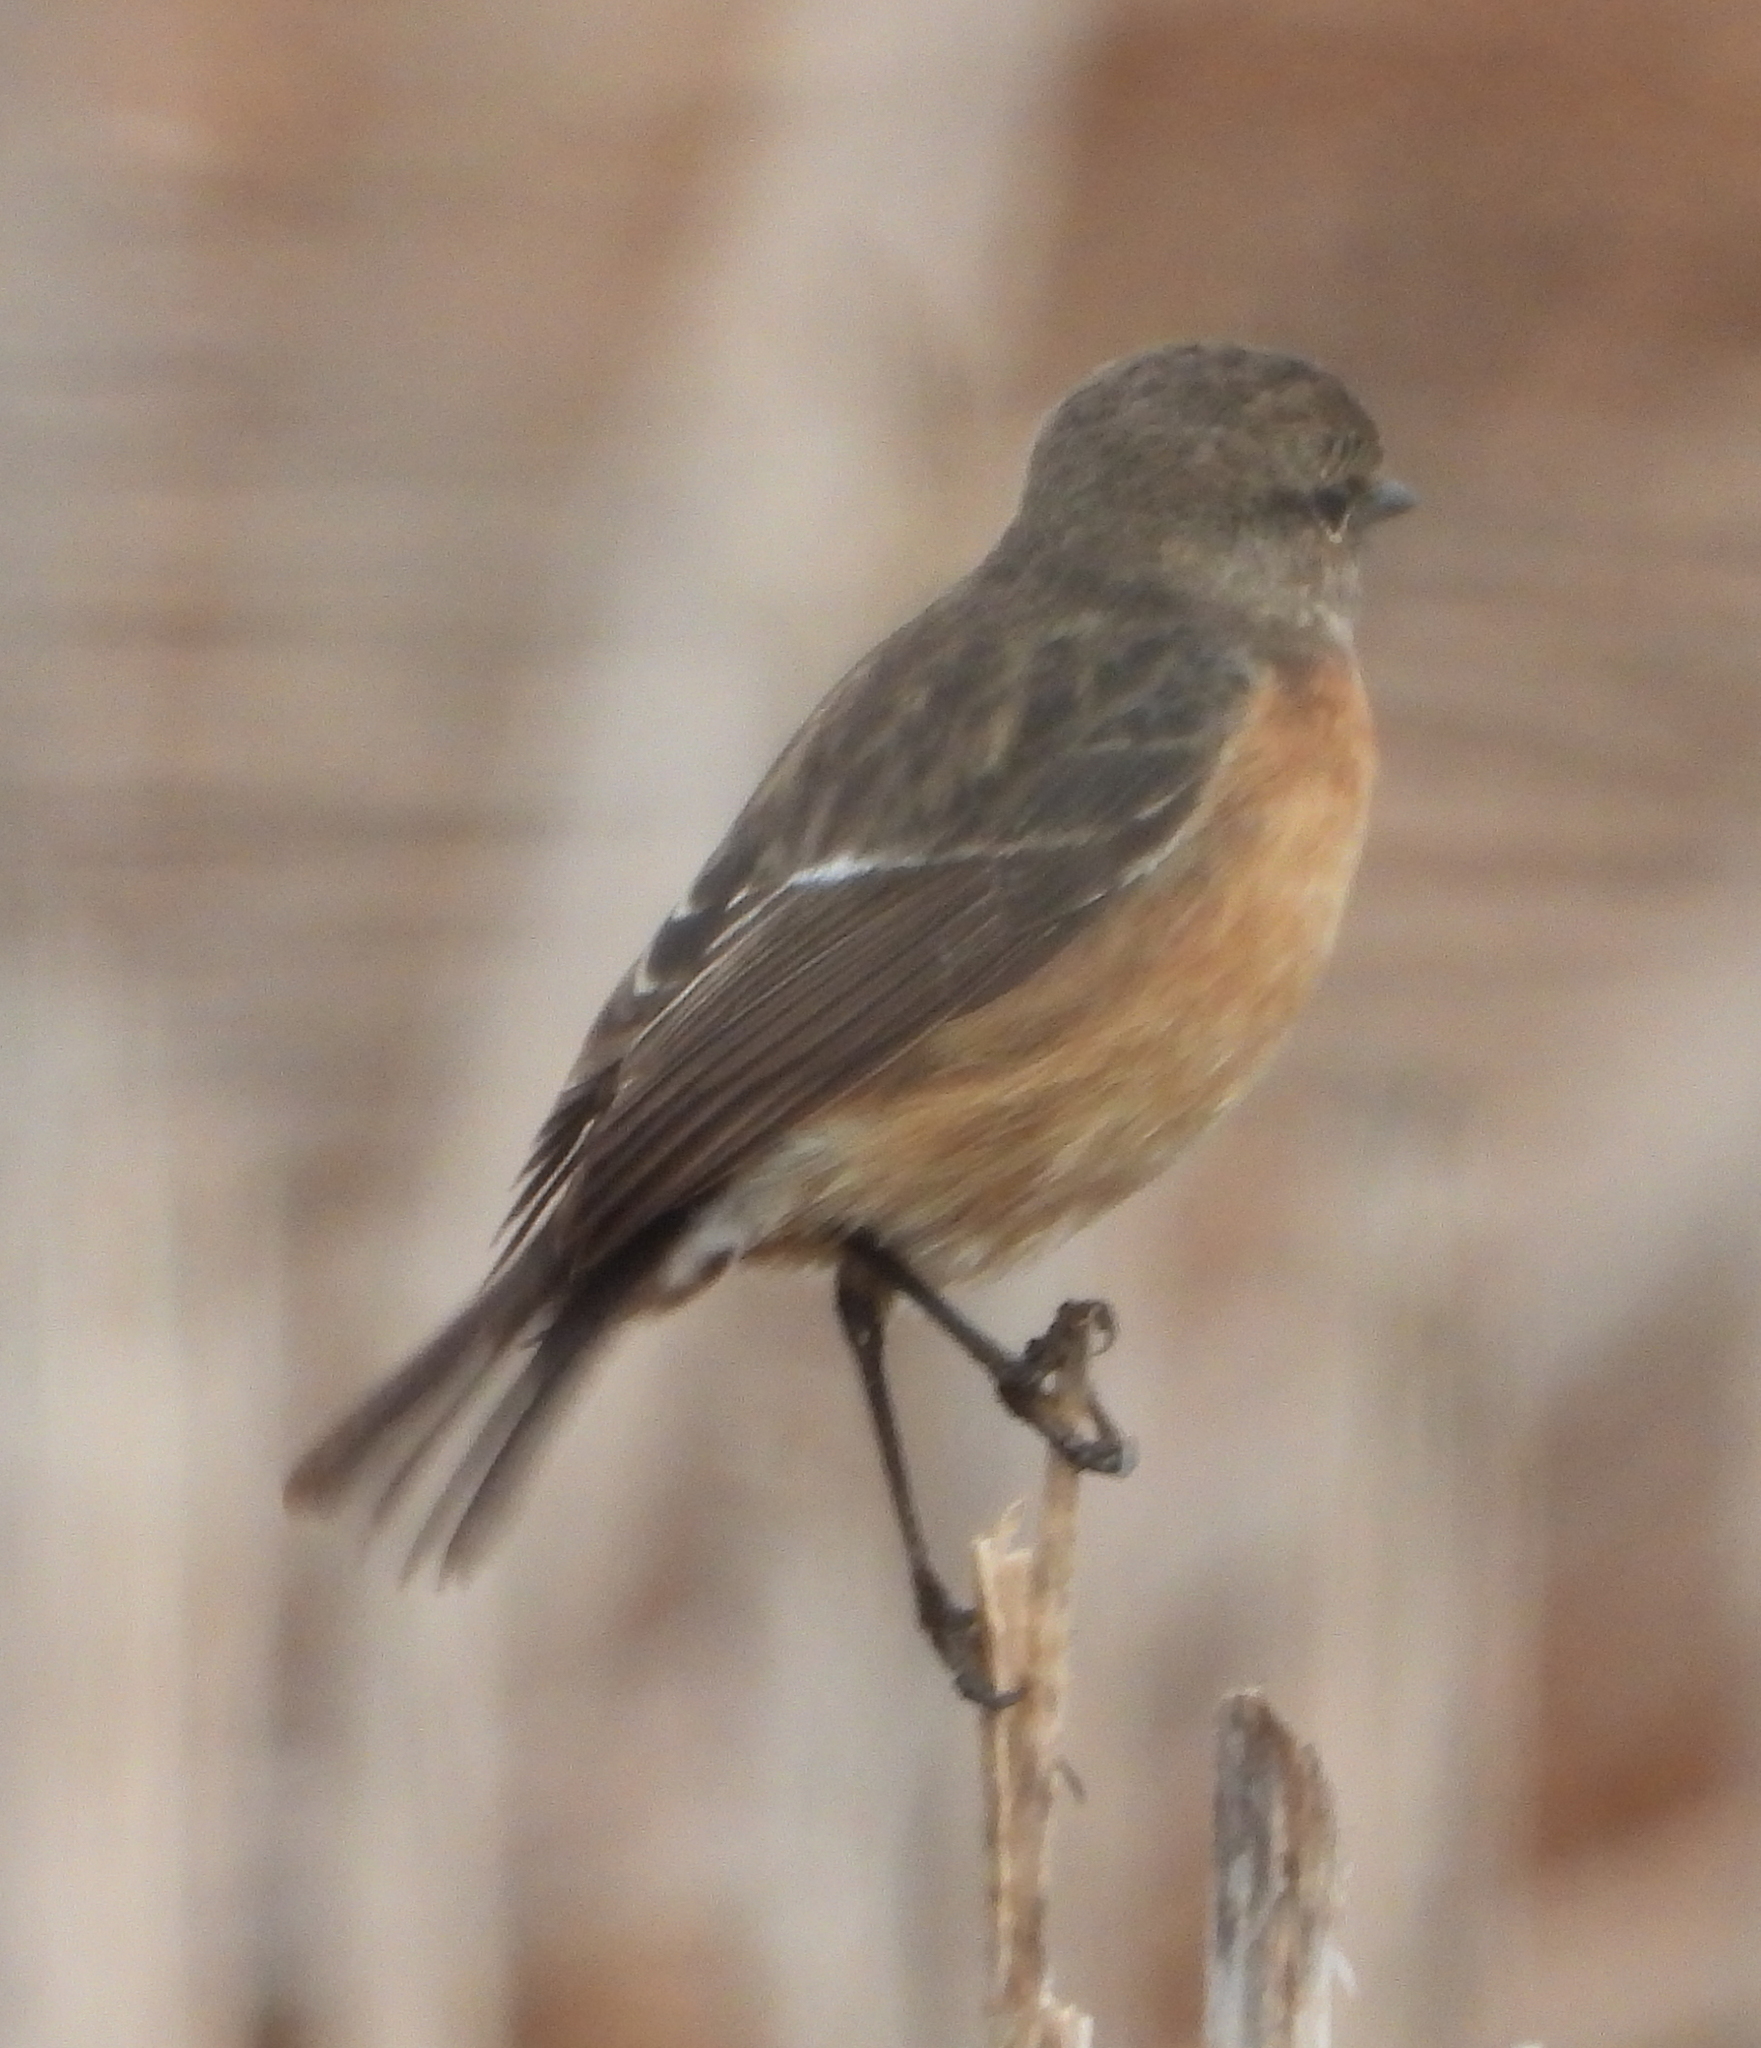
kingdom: Animalia
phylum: Chordata
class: Aves
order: Passeriformes
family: Muscicapidae
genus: Saxicola
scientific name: Saxicola torquatus
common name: African stonechat
